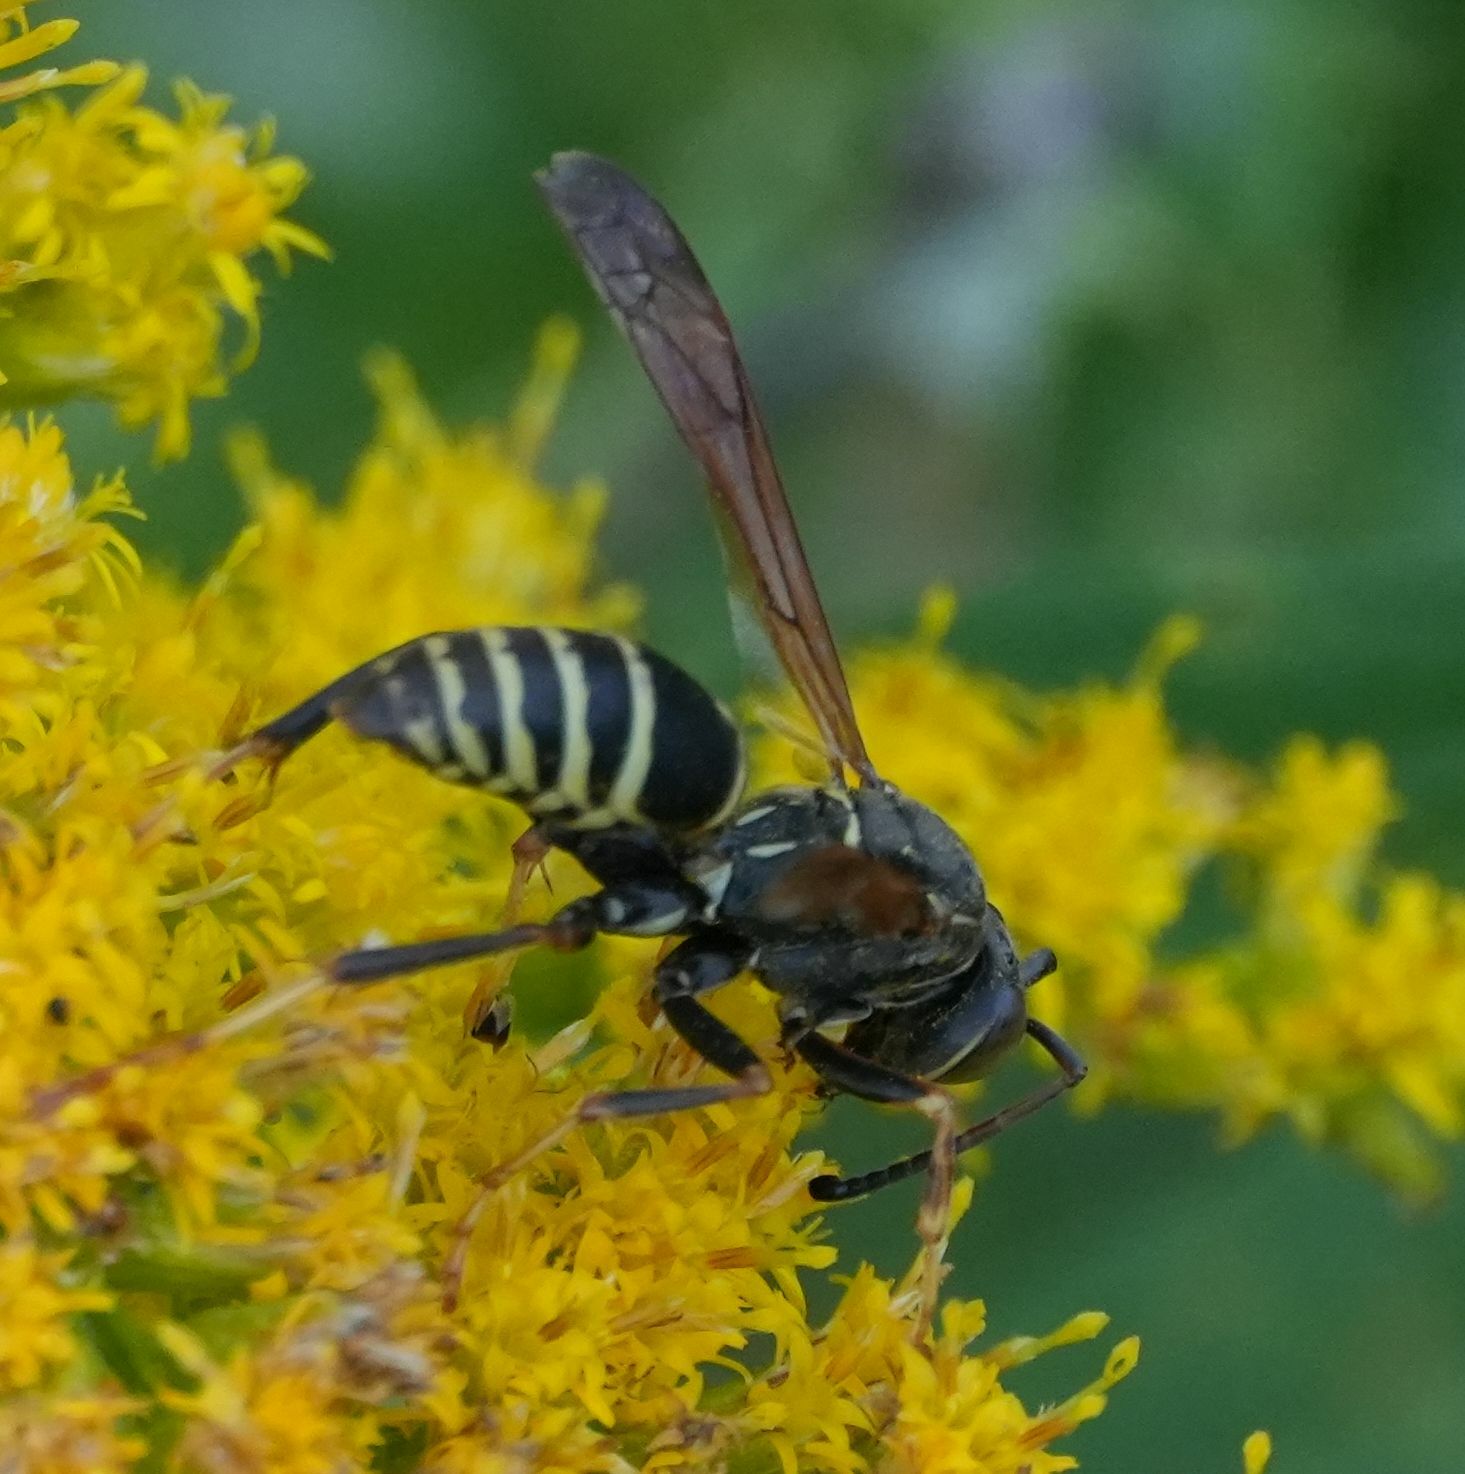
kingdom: Animalia
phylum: Arthropoda
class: Insecta
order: Hymenoptera
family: Eumenidae
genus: Polistes
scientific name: Polistes fuscatus
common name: Dark paper wasp
